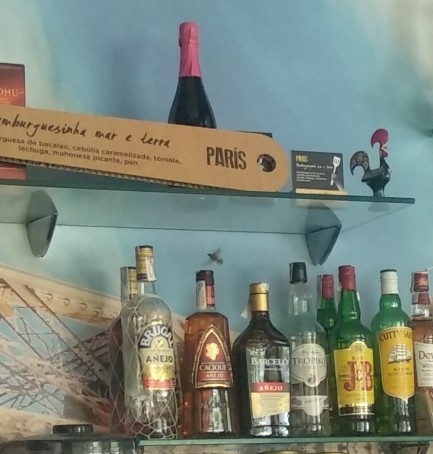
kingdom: Animalia
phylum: Arthropoda
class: Insecta
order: Lepidoptera
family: Sphingidae
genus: Macroglossum
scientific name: Macroglossum stellatarum
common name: Humming-bird hawk-moth
